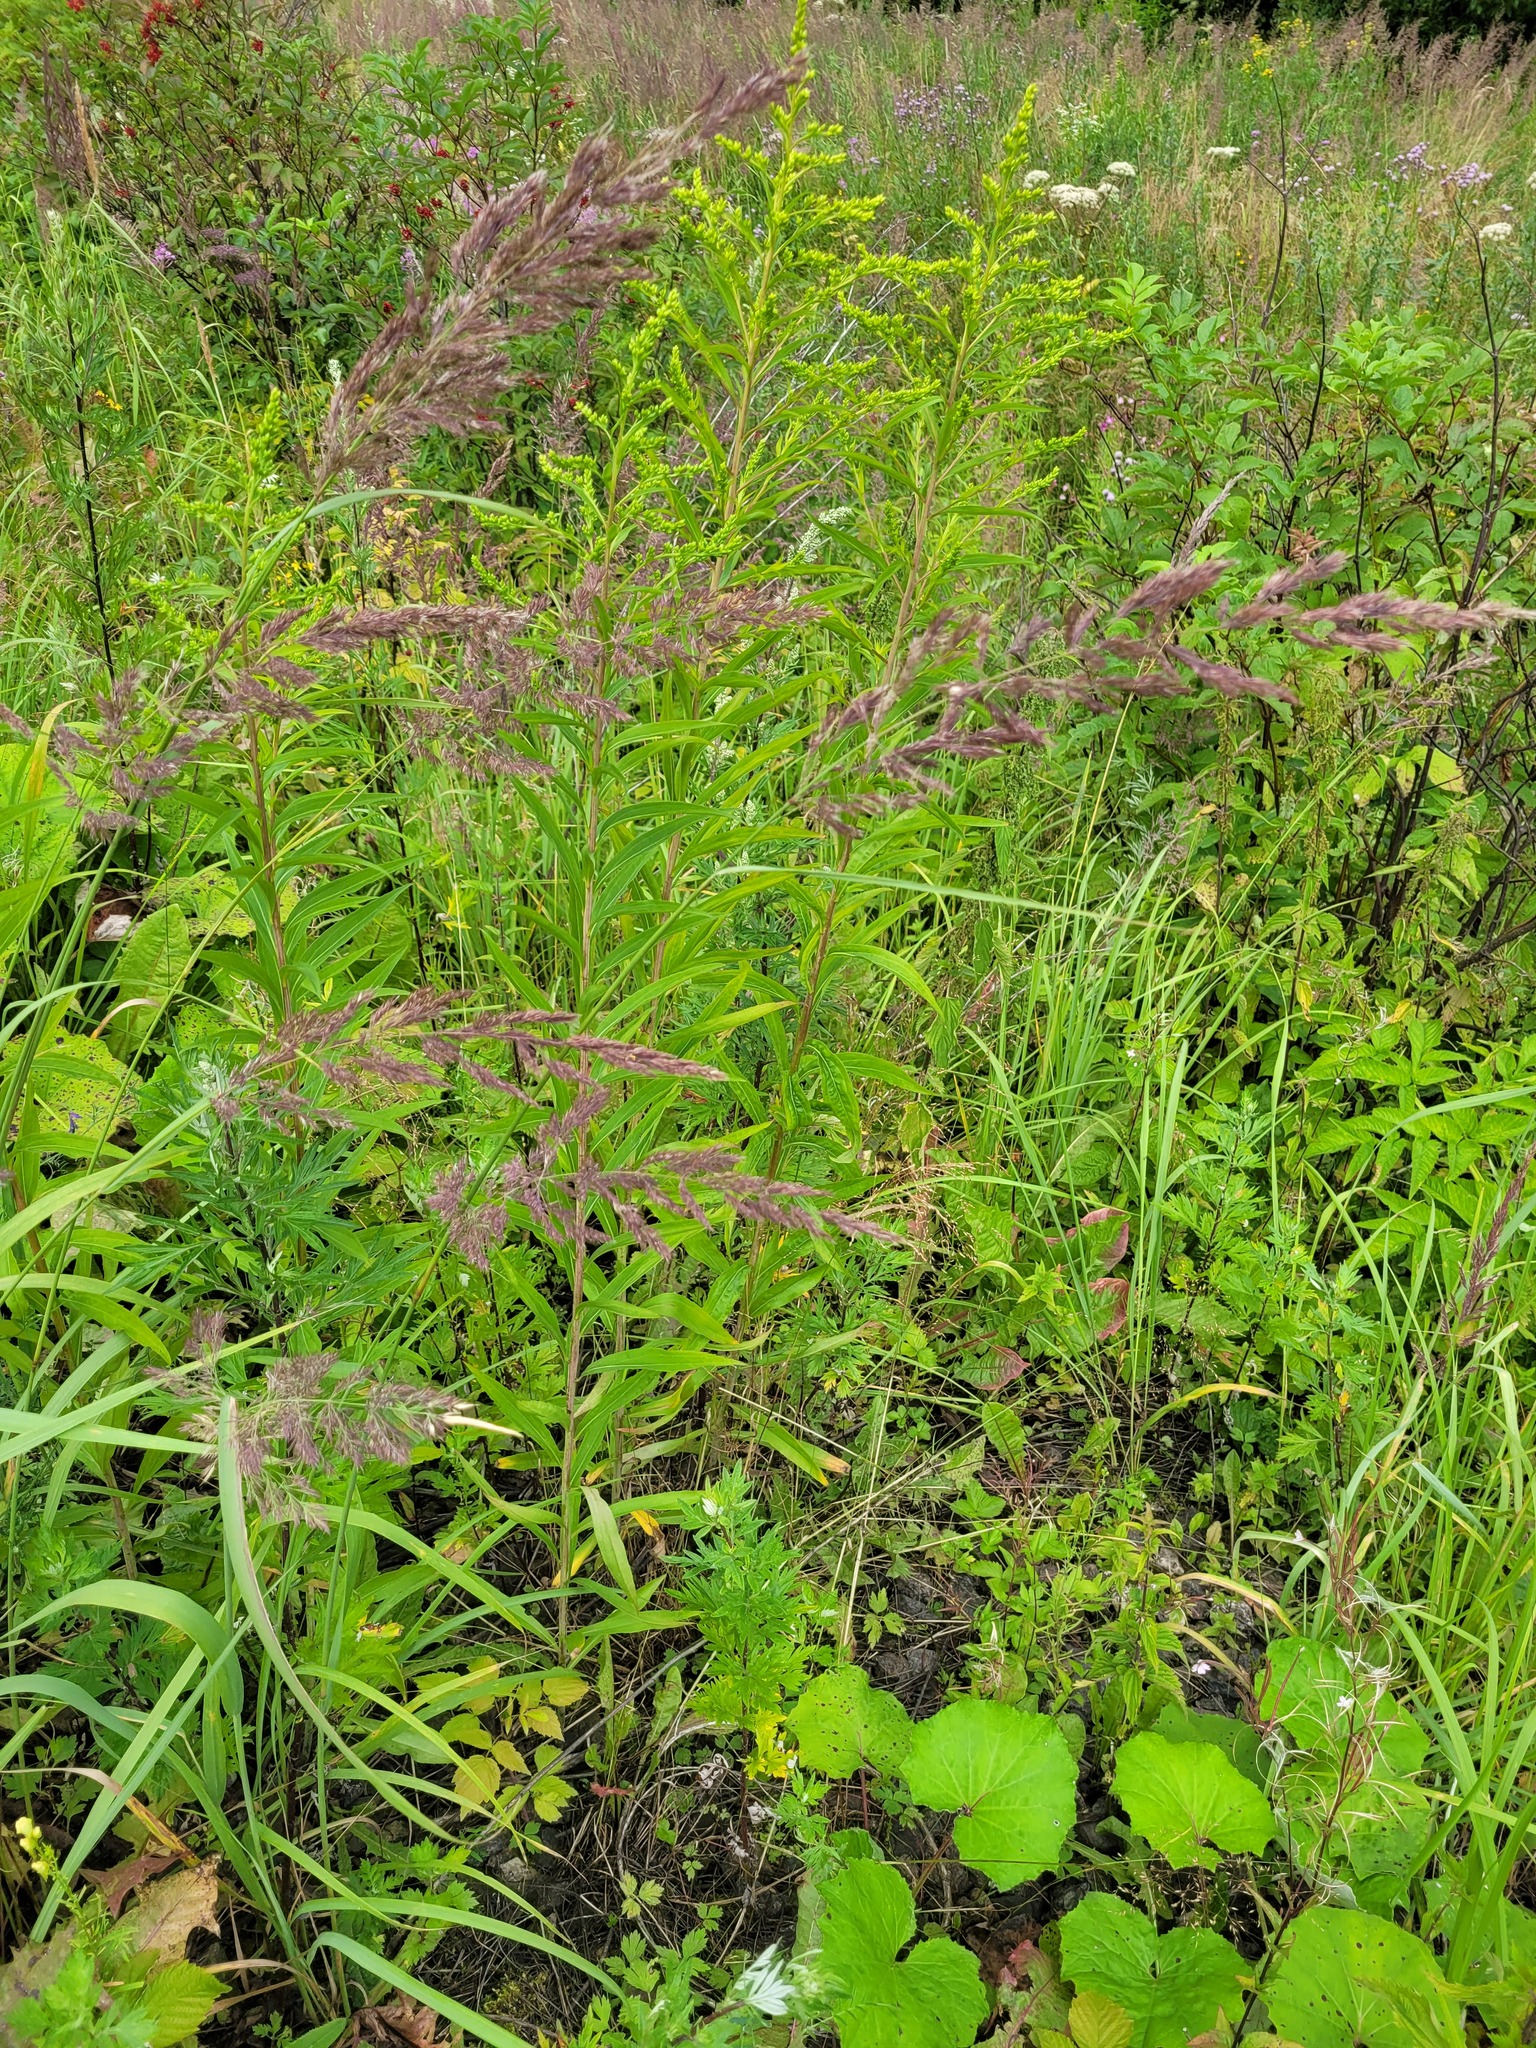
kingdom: Plantae
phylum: Tracheophyta
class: Magnoliopsida
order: Asterales
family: Asteraceae
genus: Solidago
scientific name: Solidago gigantea
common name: Giant goldenrod
